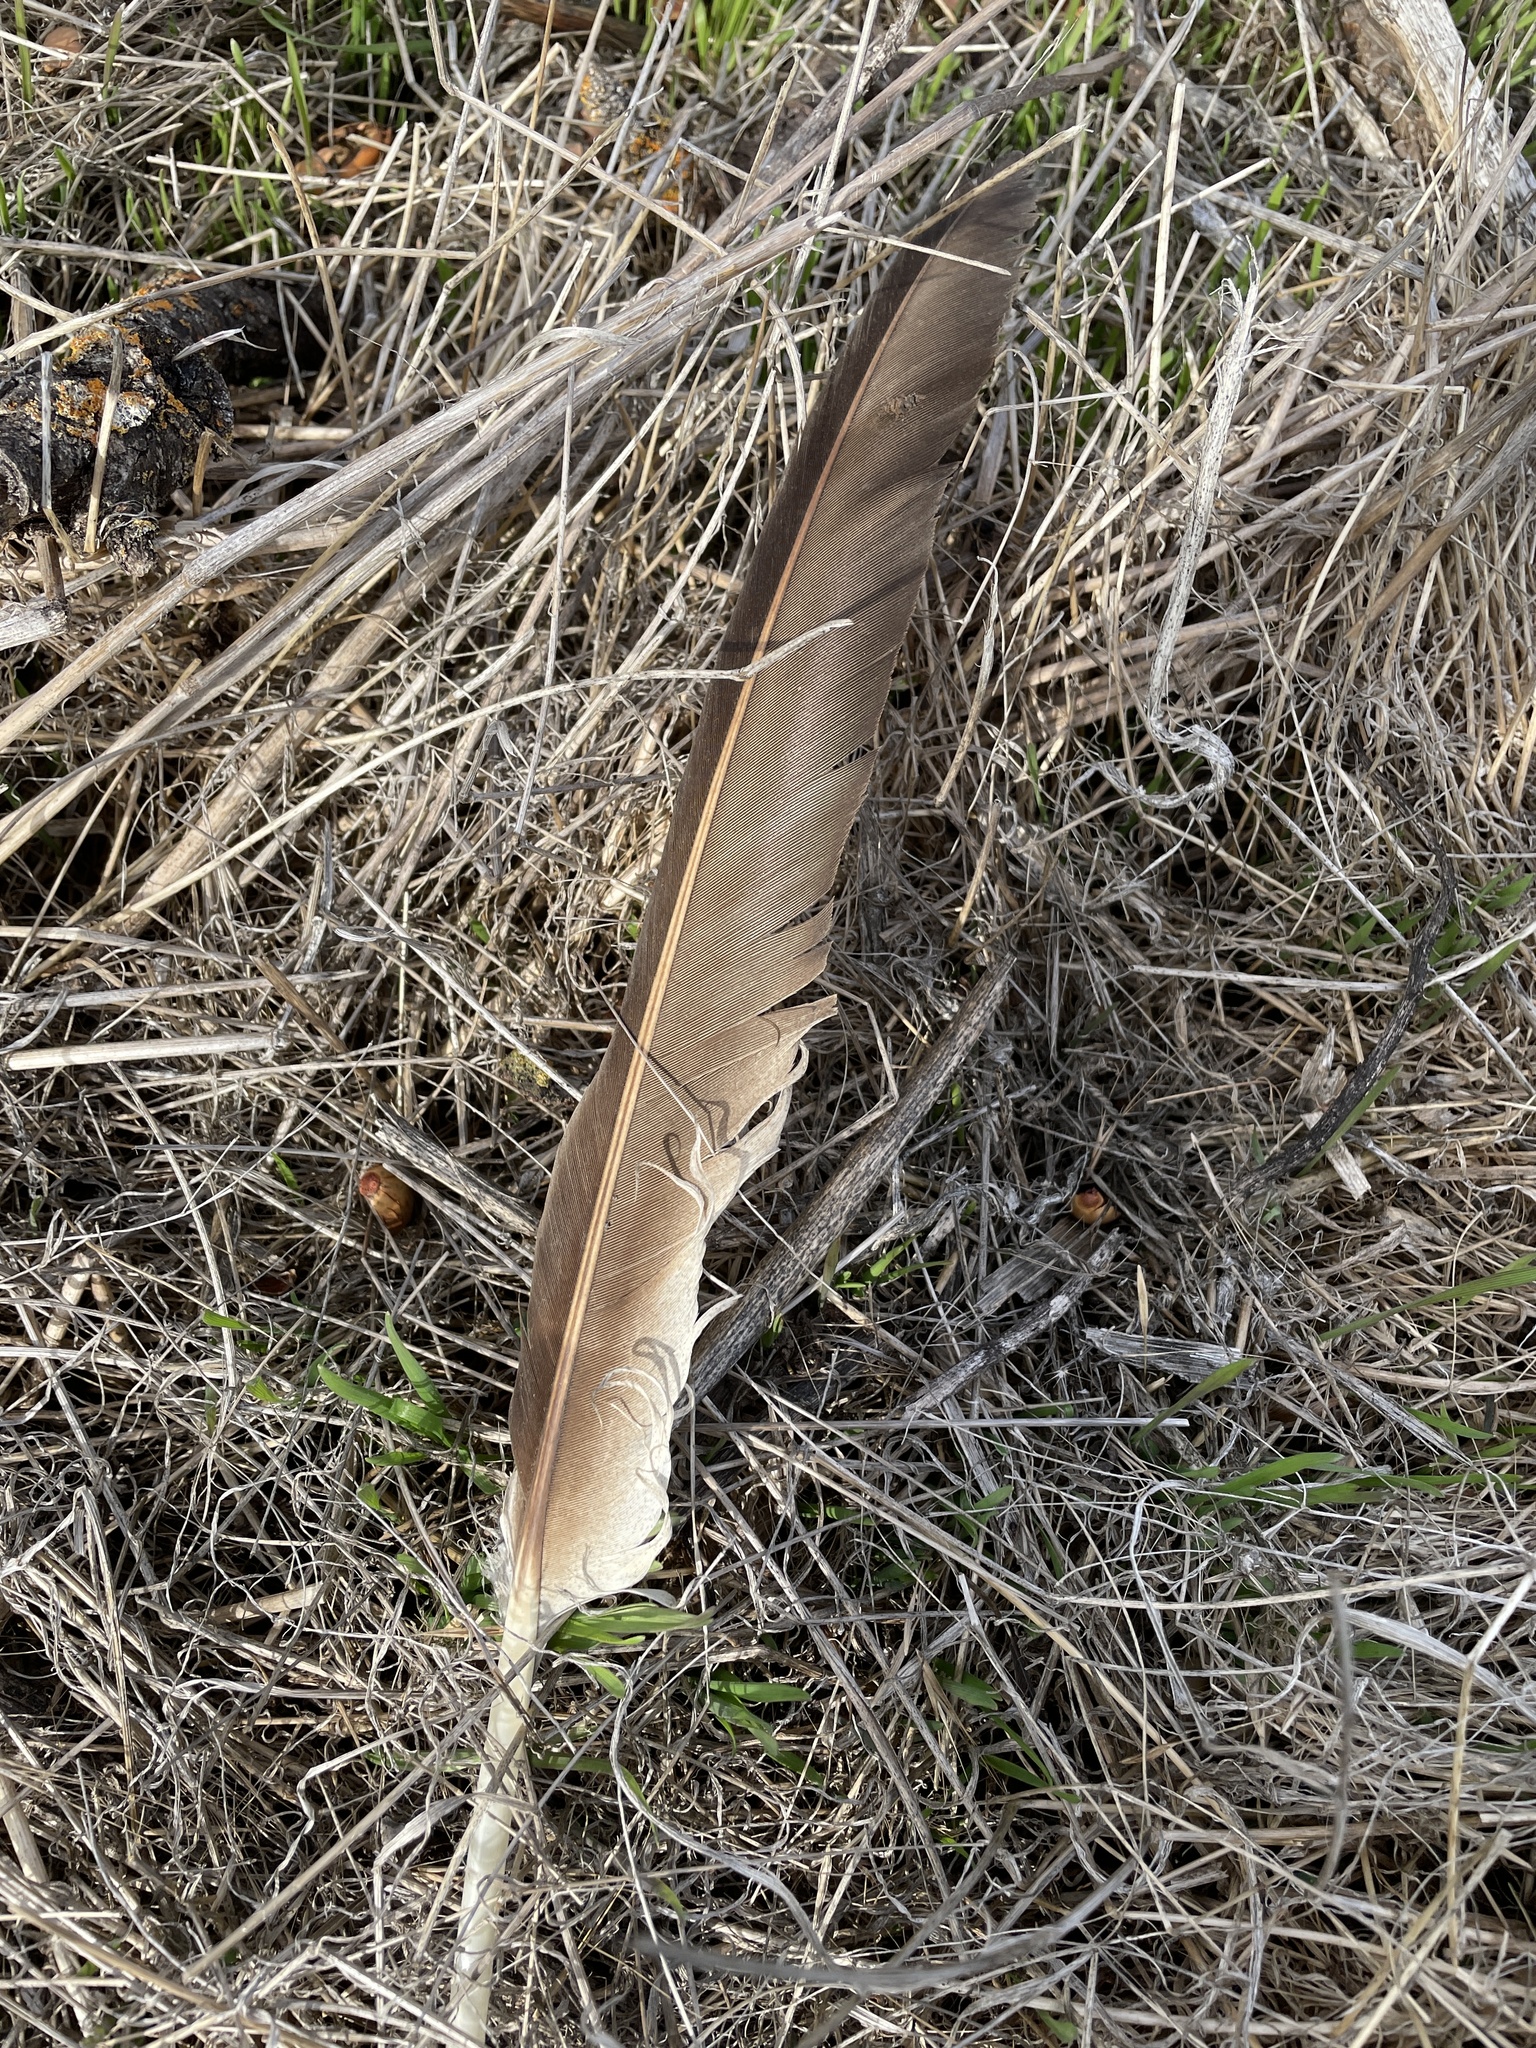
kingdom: Animalia
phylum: Chordata
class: Aves
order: Accipitriformes
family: Cathartidae
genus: Cathartes
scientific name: Cathartes aura
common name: Turkey vulture
